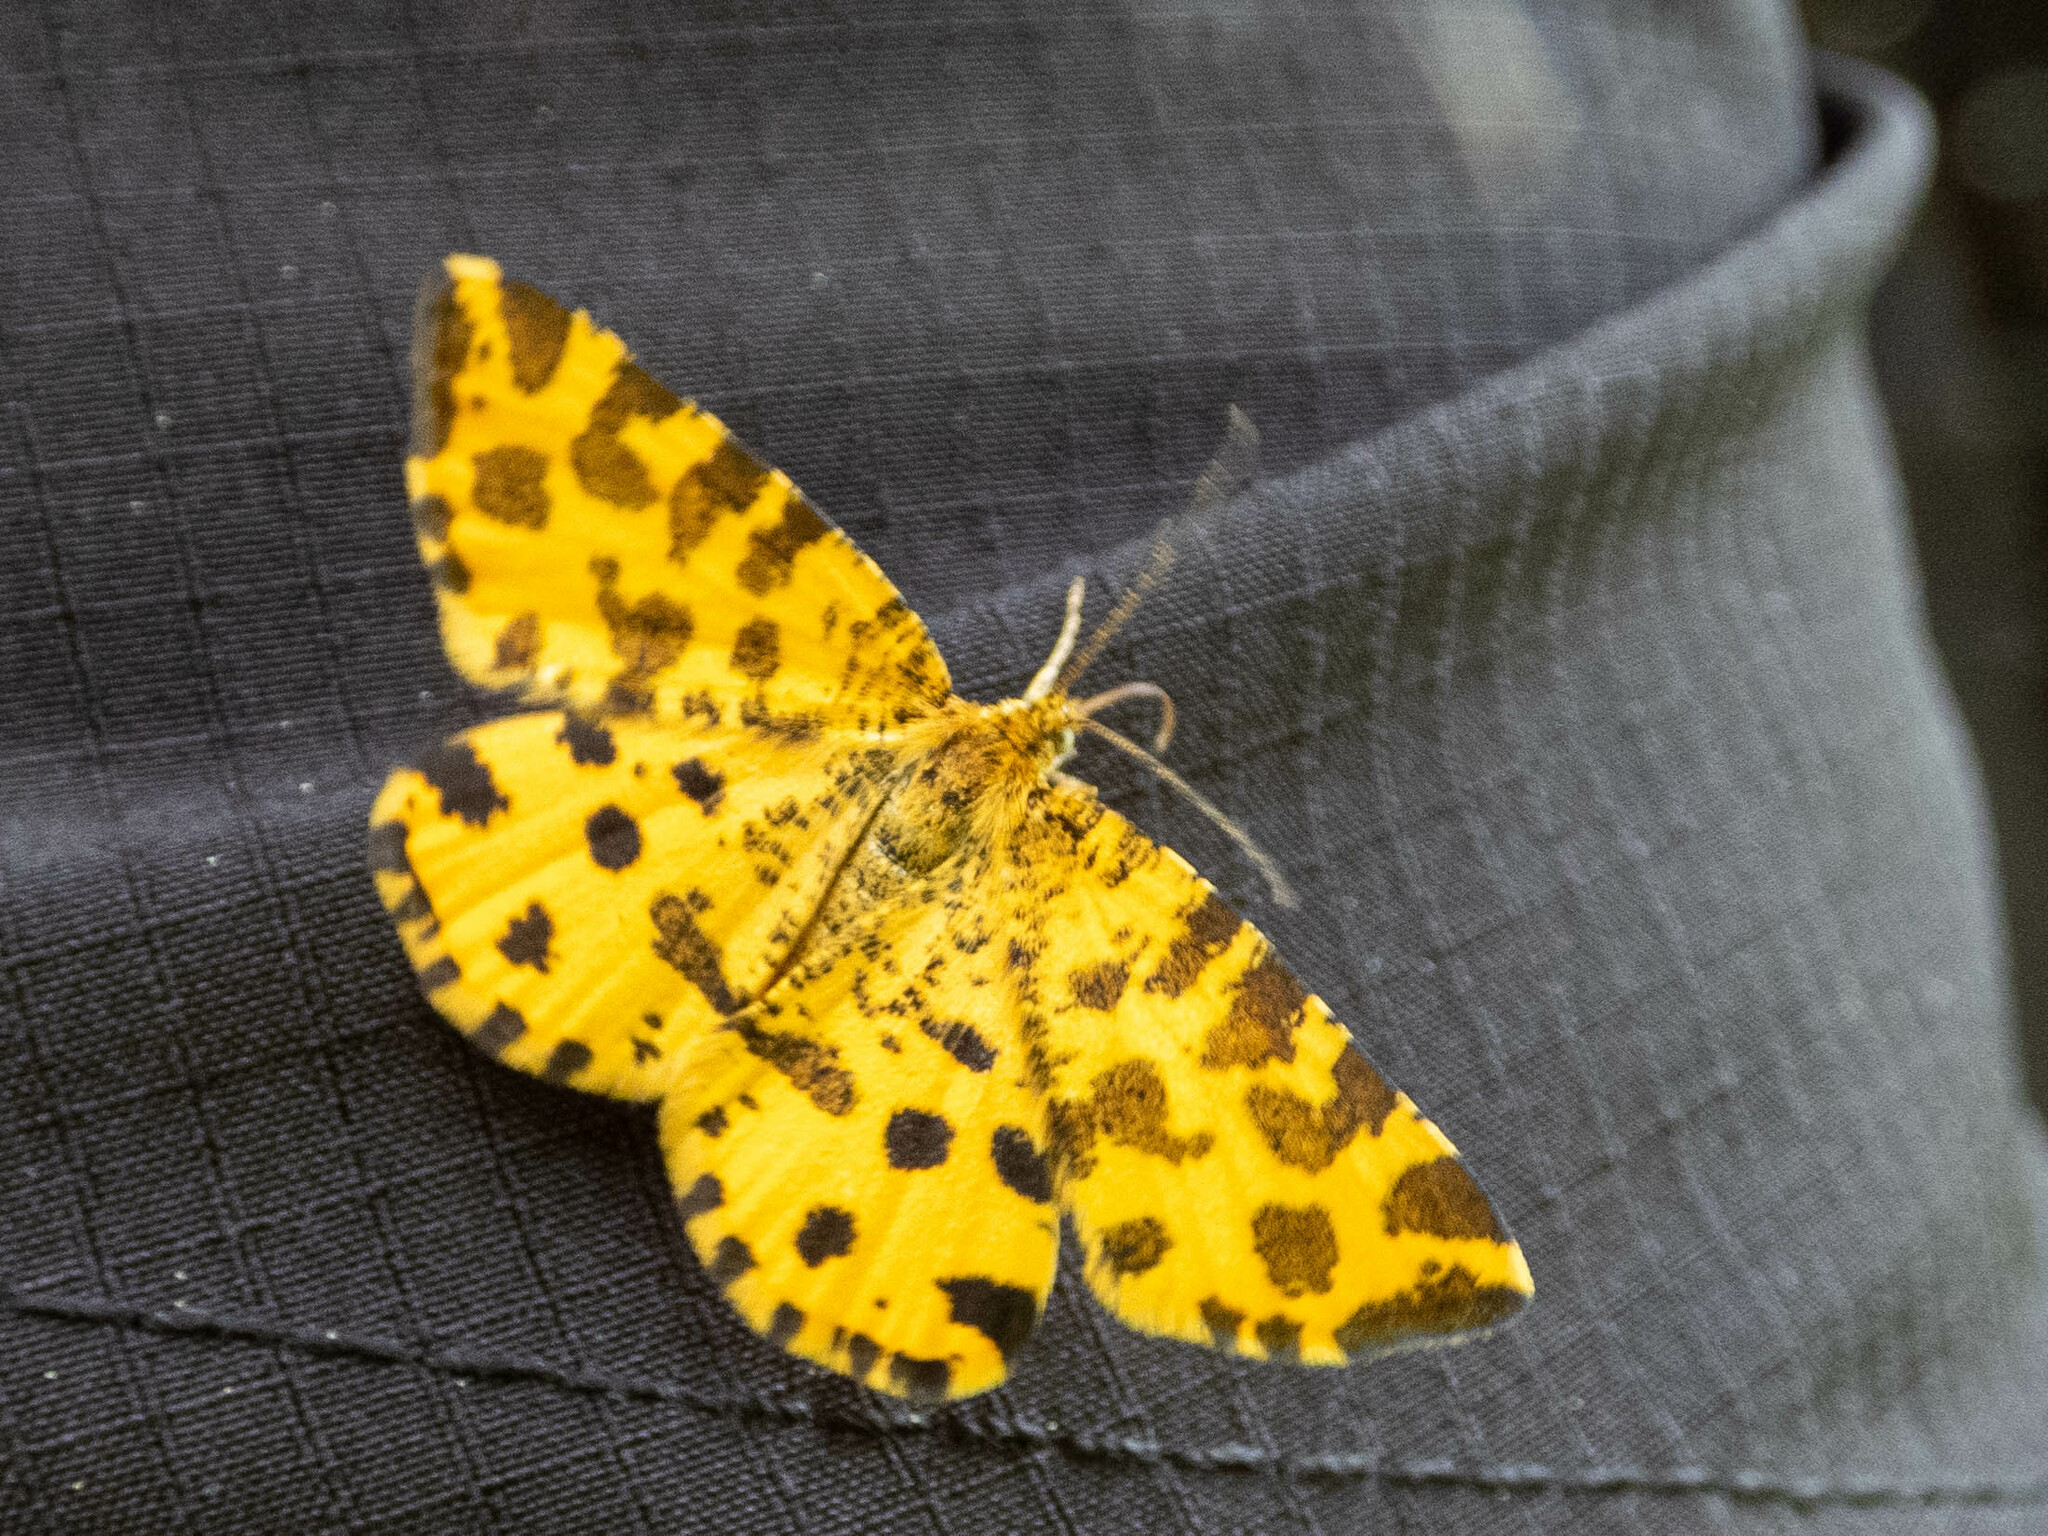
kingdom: Animalia
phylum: Arthropoda
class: Insecta
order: Lepidoptera
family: Geometridae
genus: Pseudopanthera
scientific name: Pseudopanthera macularia
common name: Speckled yellow
